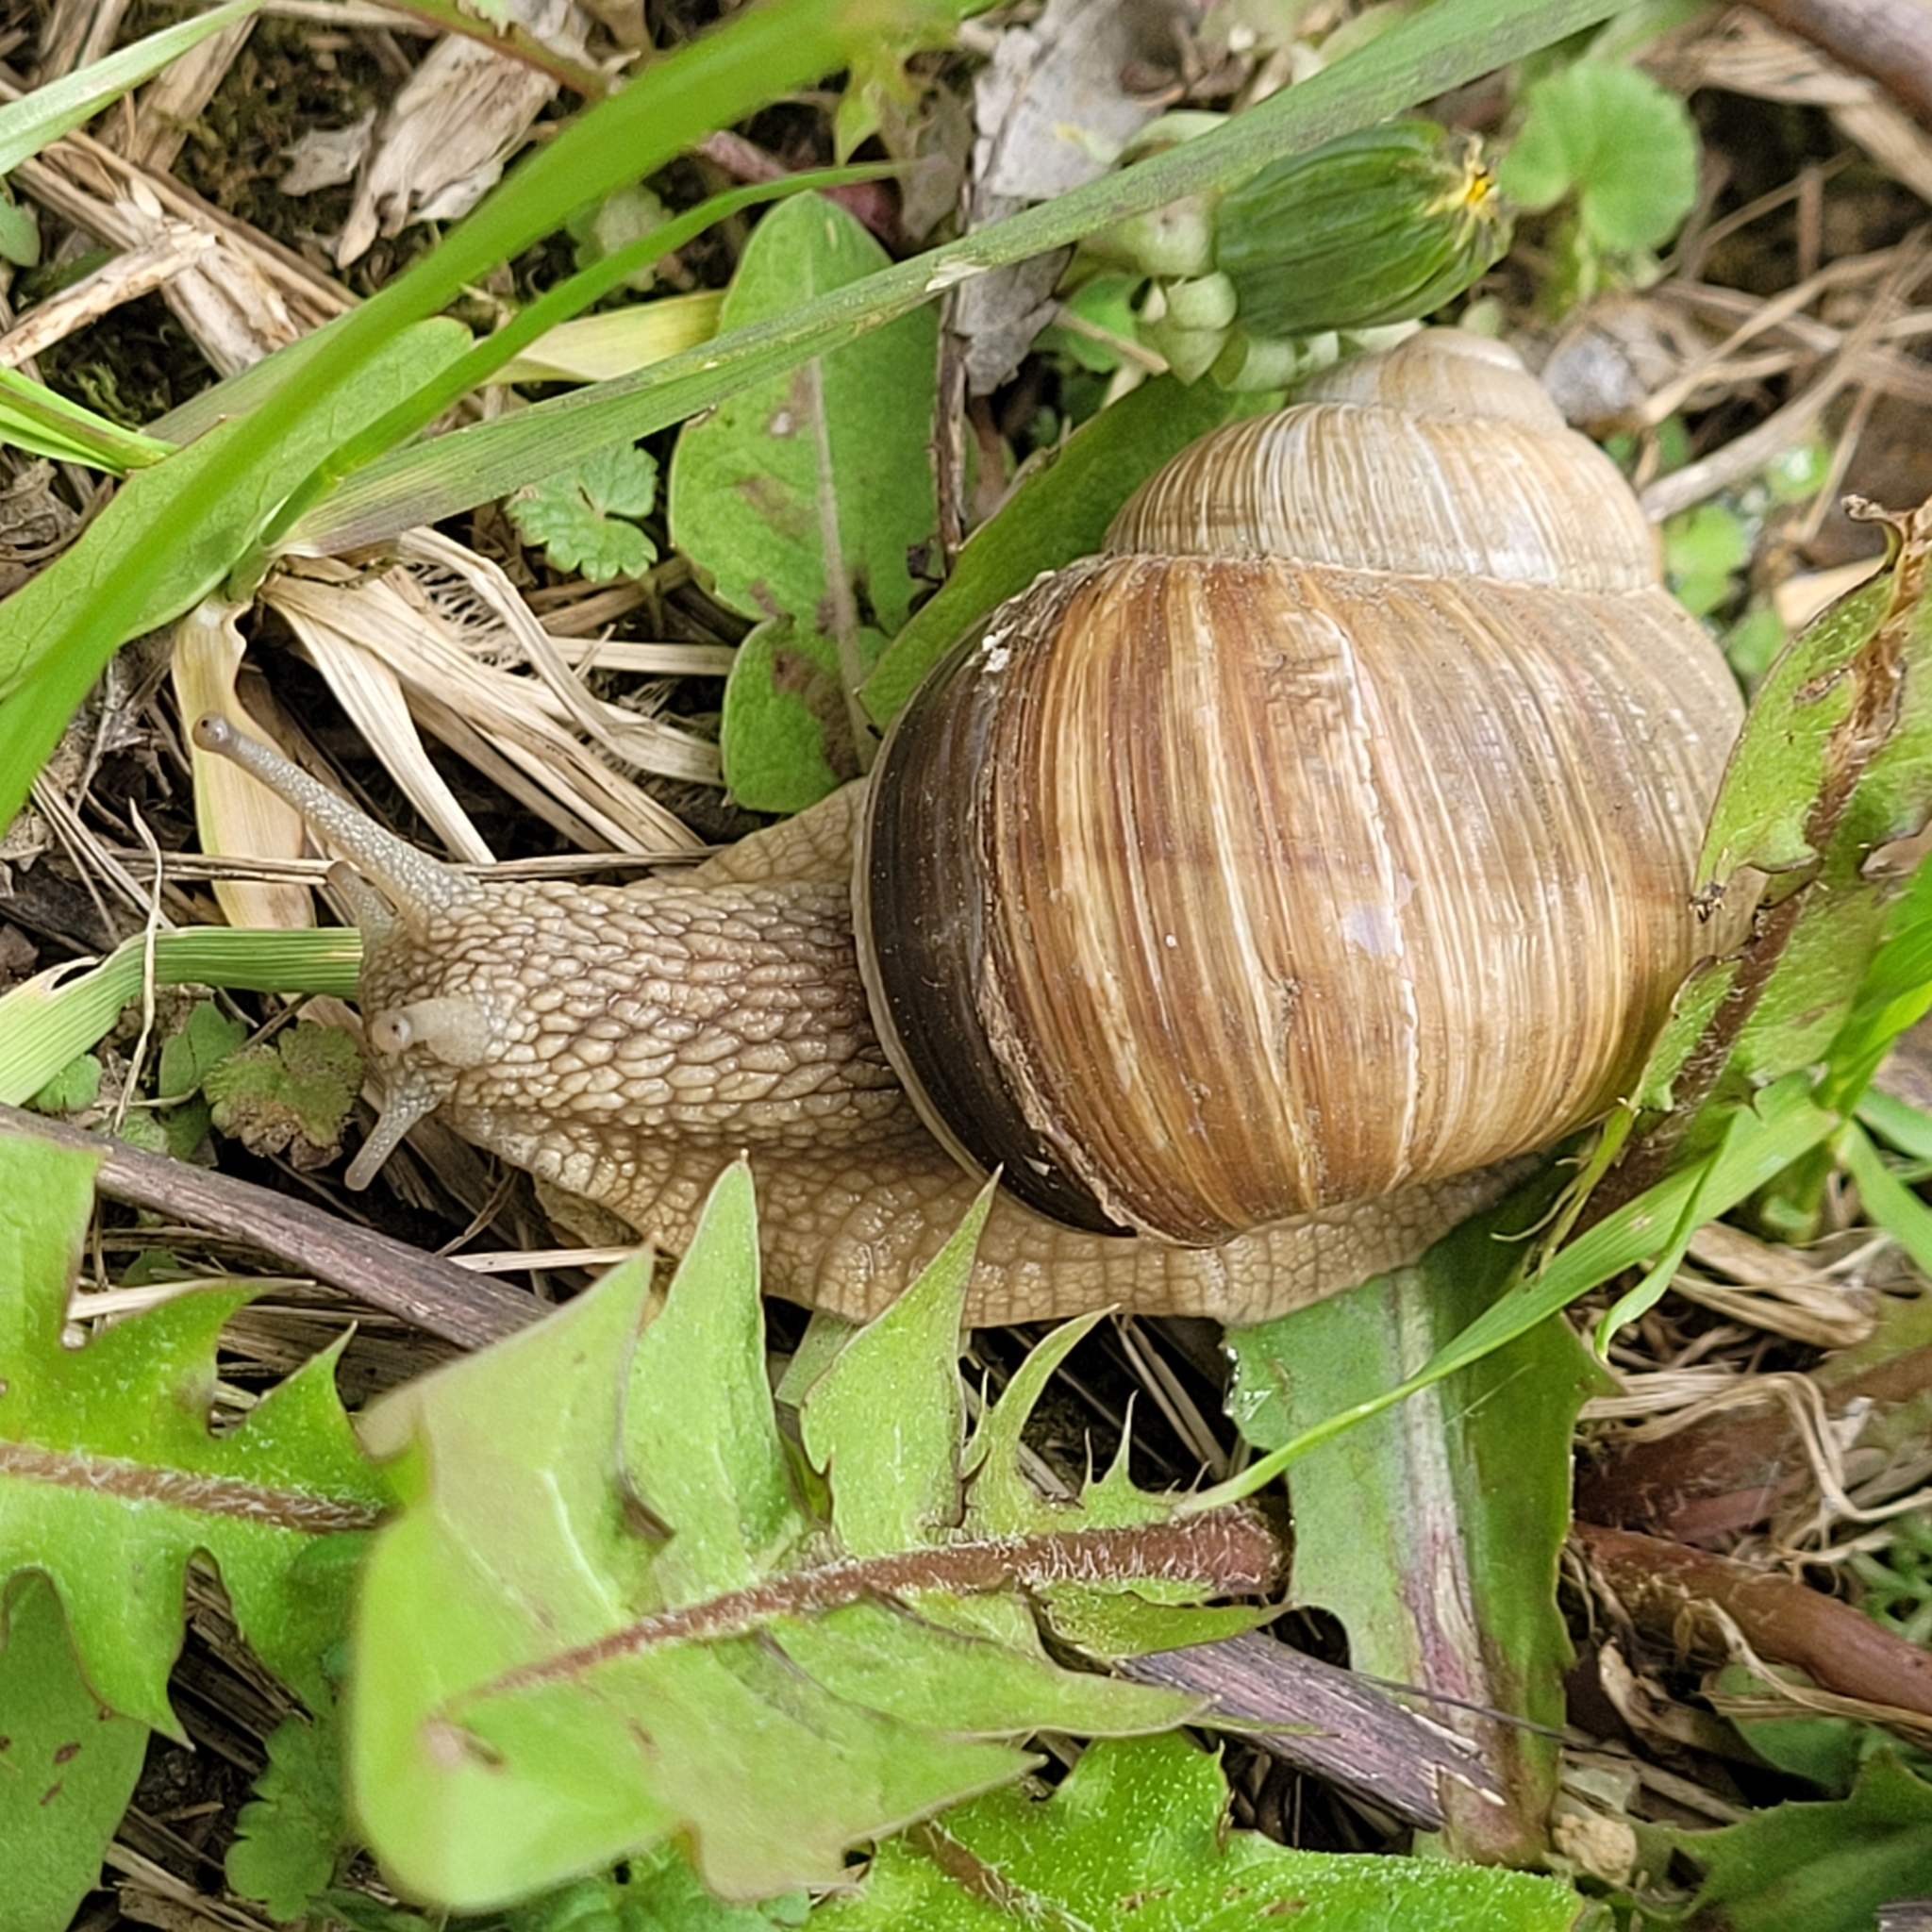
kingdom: Animalia
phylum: Mollusca
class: Gastropoda
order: Stylommatophora
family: Helicidae
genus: Helix
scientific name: Helix pomatia
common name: Roman snail
